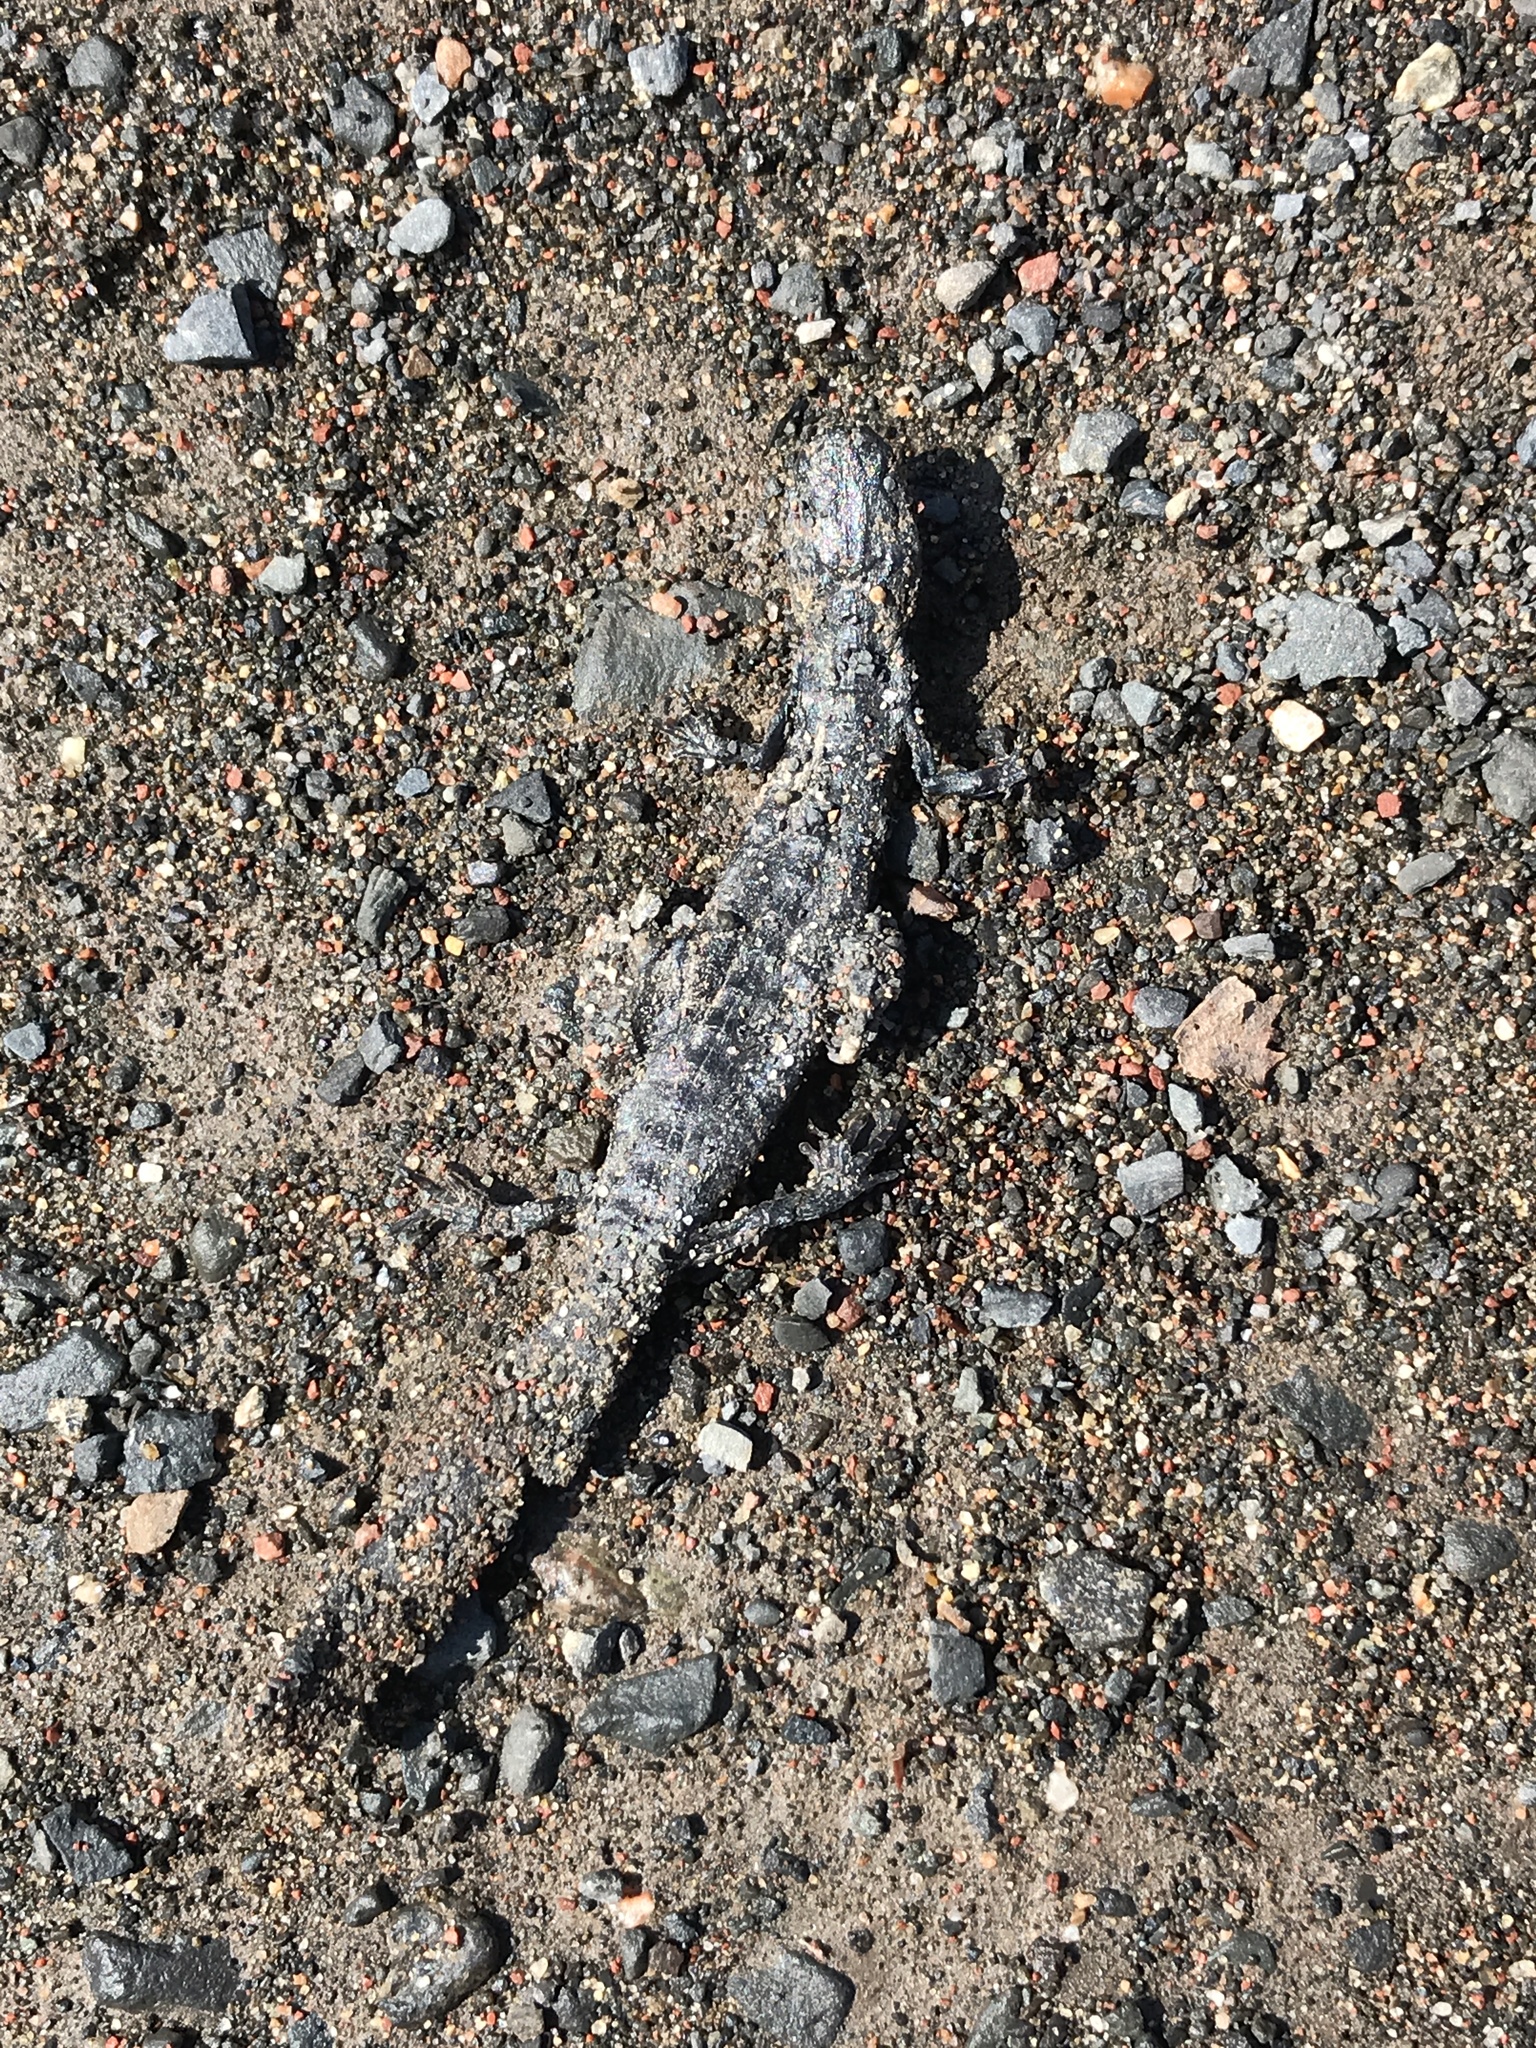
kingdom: Animalia
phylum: Chordata
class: Amphibia
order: Caudata
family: Ambystomatidae
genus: Ambystoma
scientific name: Ambystoma laterale
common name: Blue-spotted salamander
